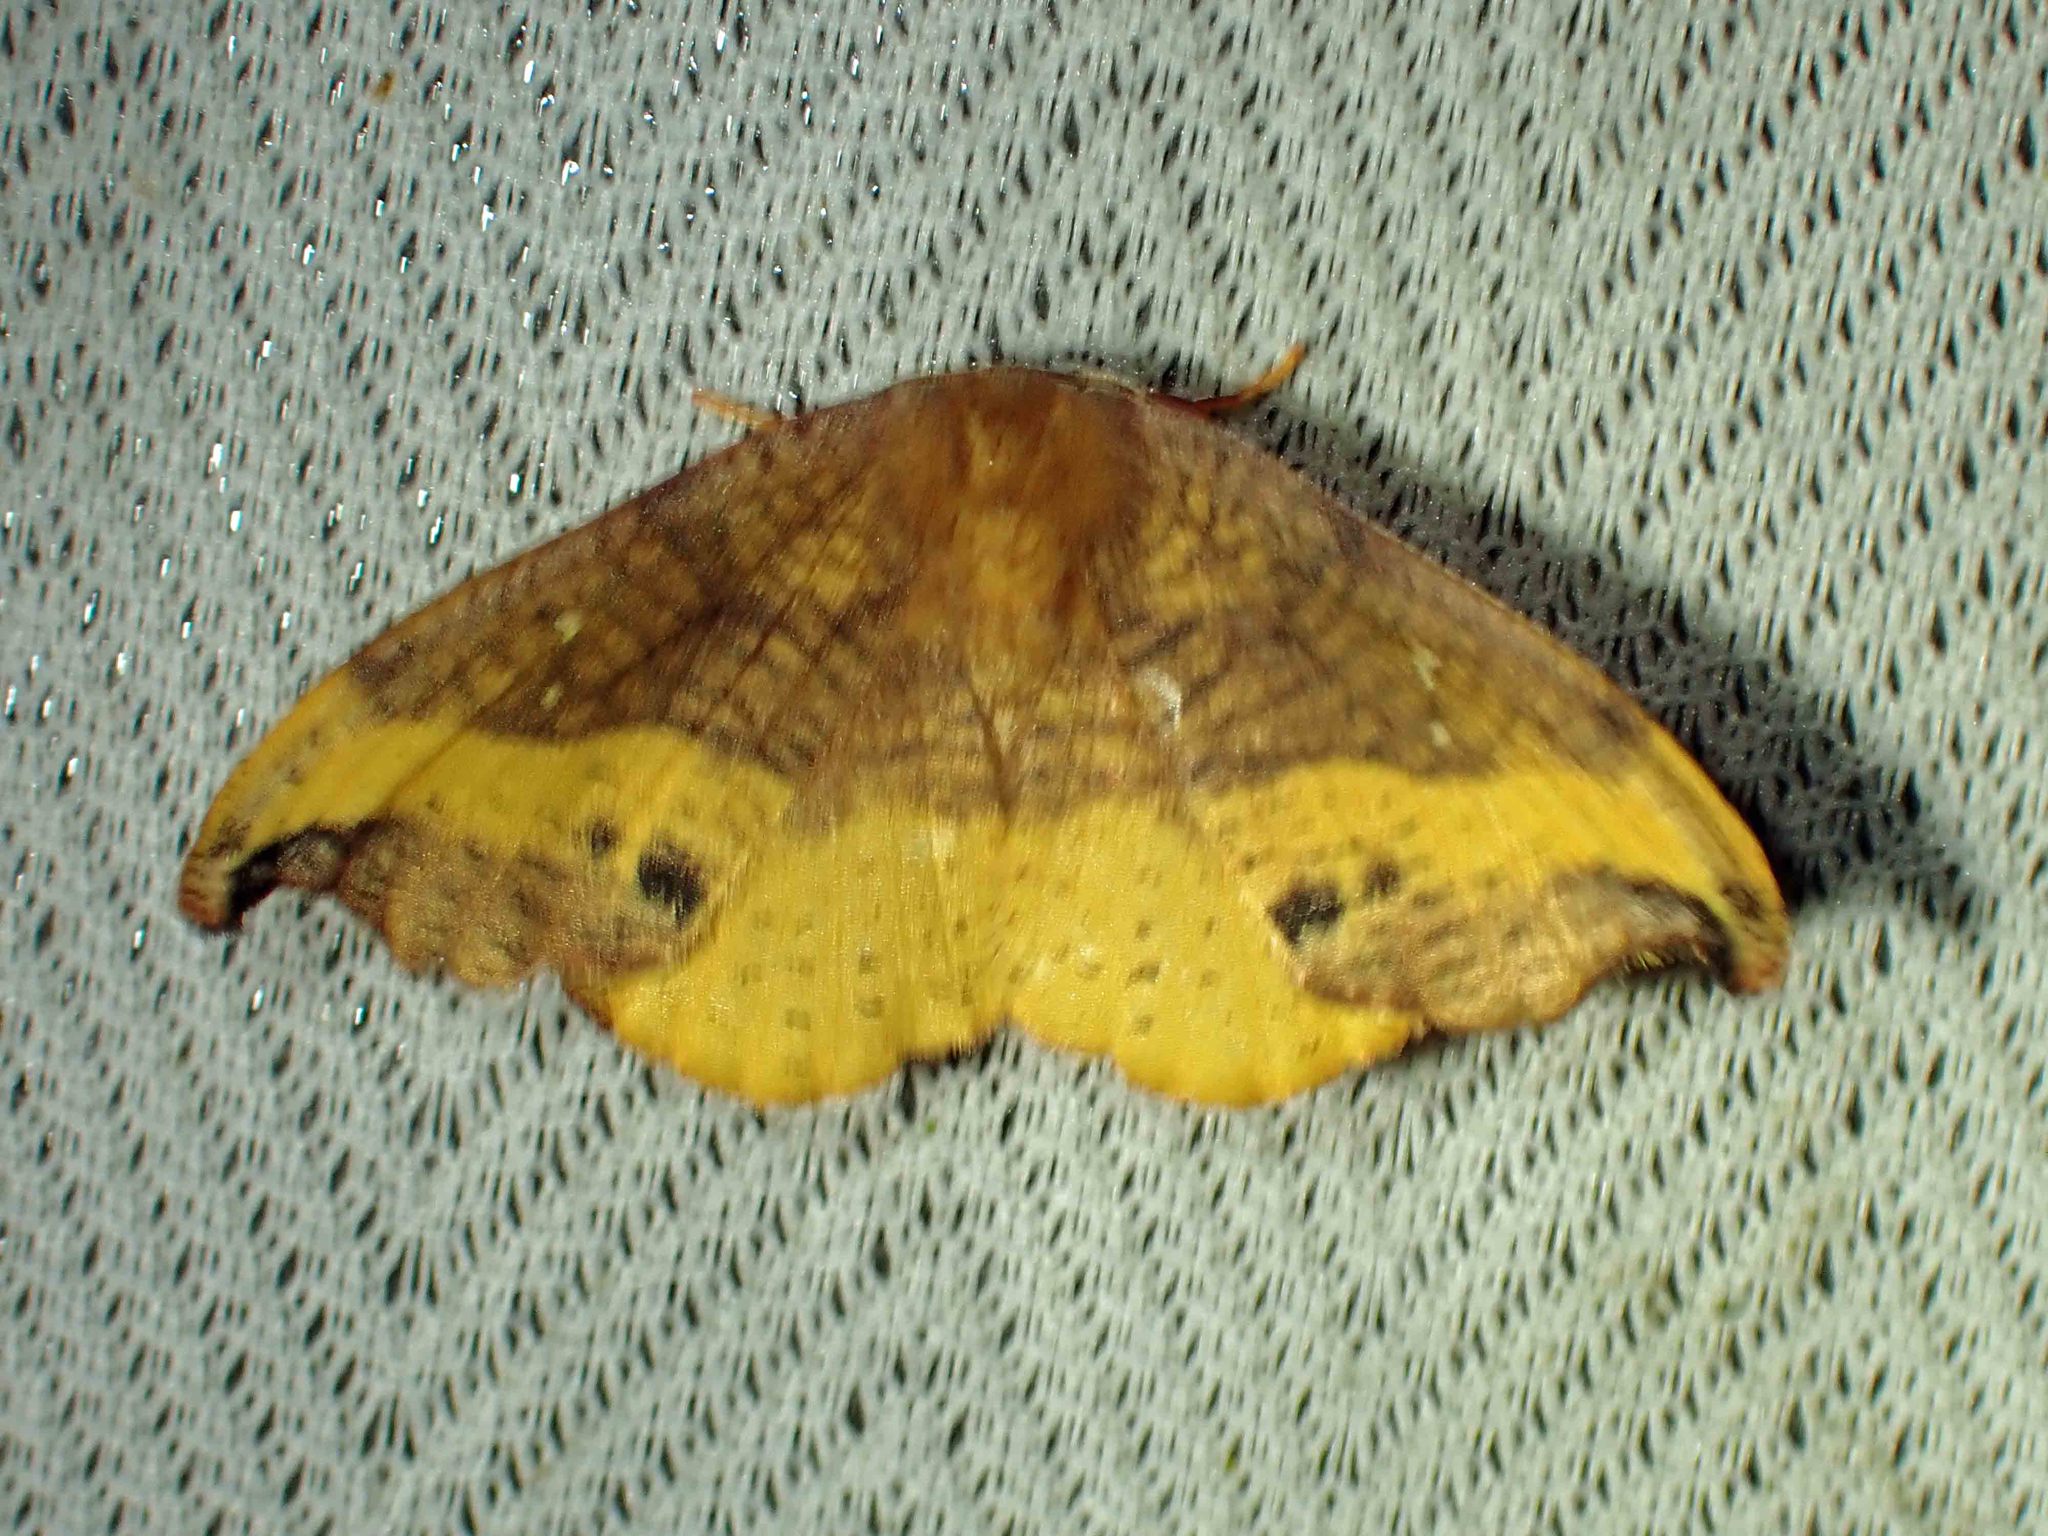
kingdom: Animalia
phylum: Arthropoda
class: Insecta
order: Lepidoptera
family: Drepanidae
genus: Oreta
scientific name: Oreta rosea
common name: Rose hooktip
